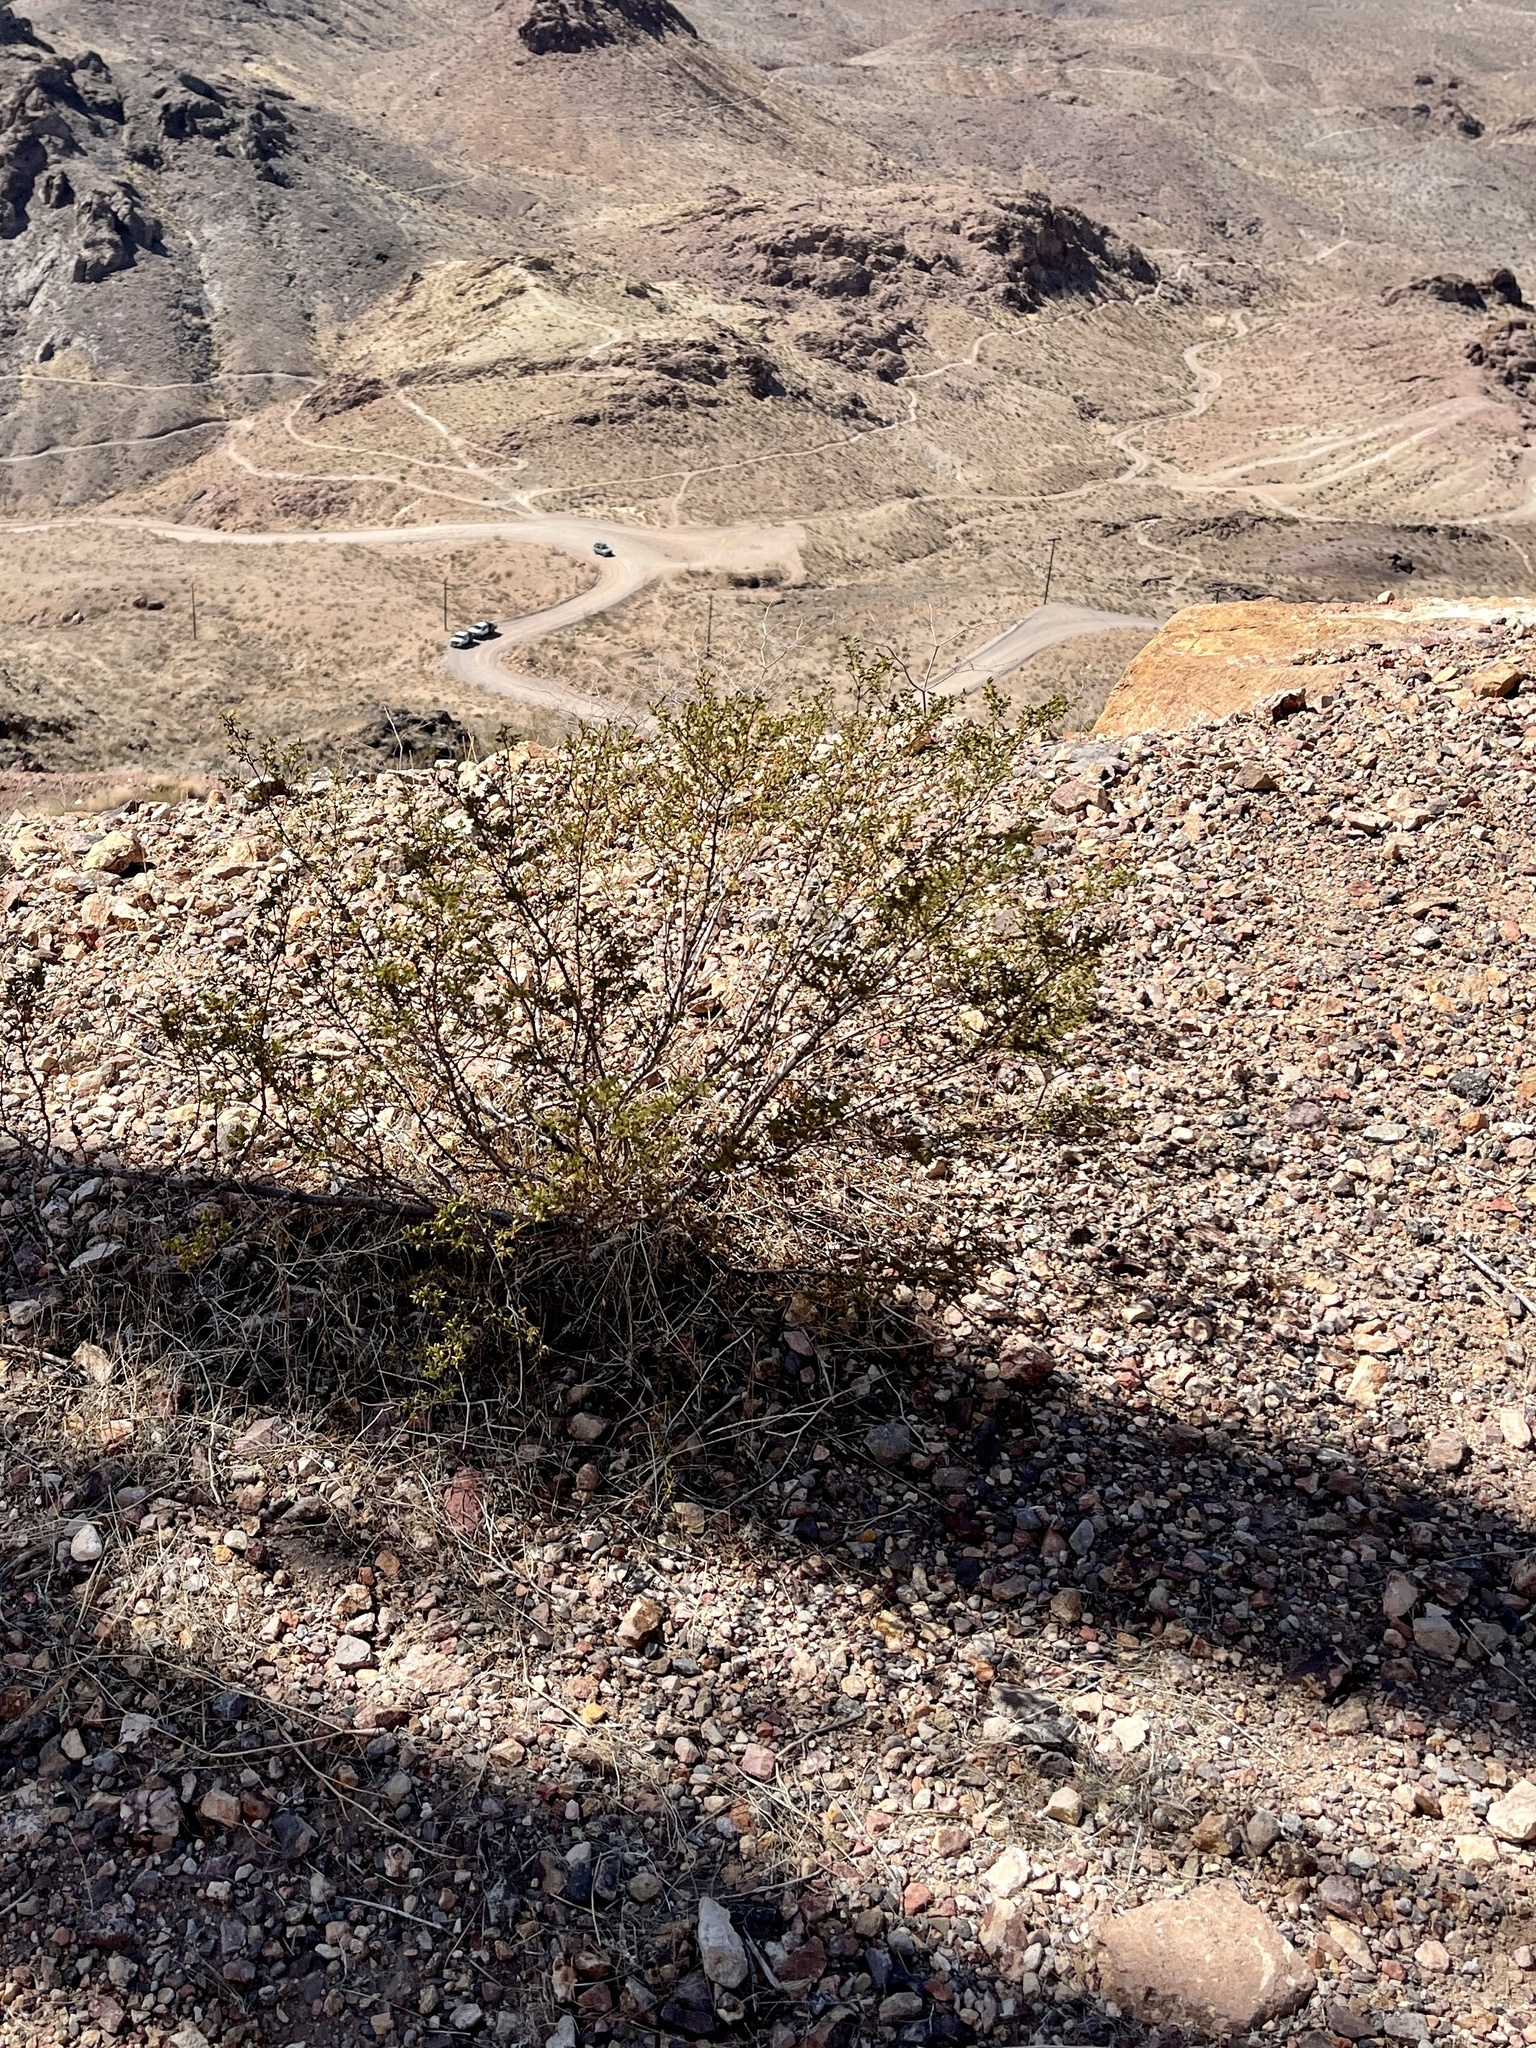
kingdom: Plantae
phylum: Tracheophyta
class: Magnoliopsida
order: Zygophyllales
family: Zygophyllaceae
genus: Larrea
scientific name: Larrea tridentata
